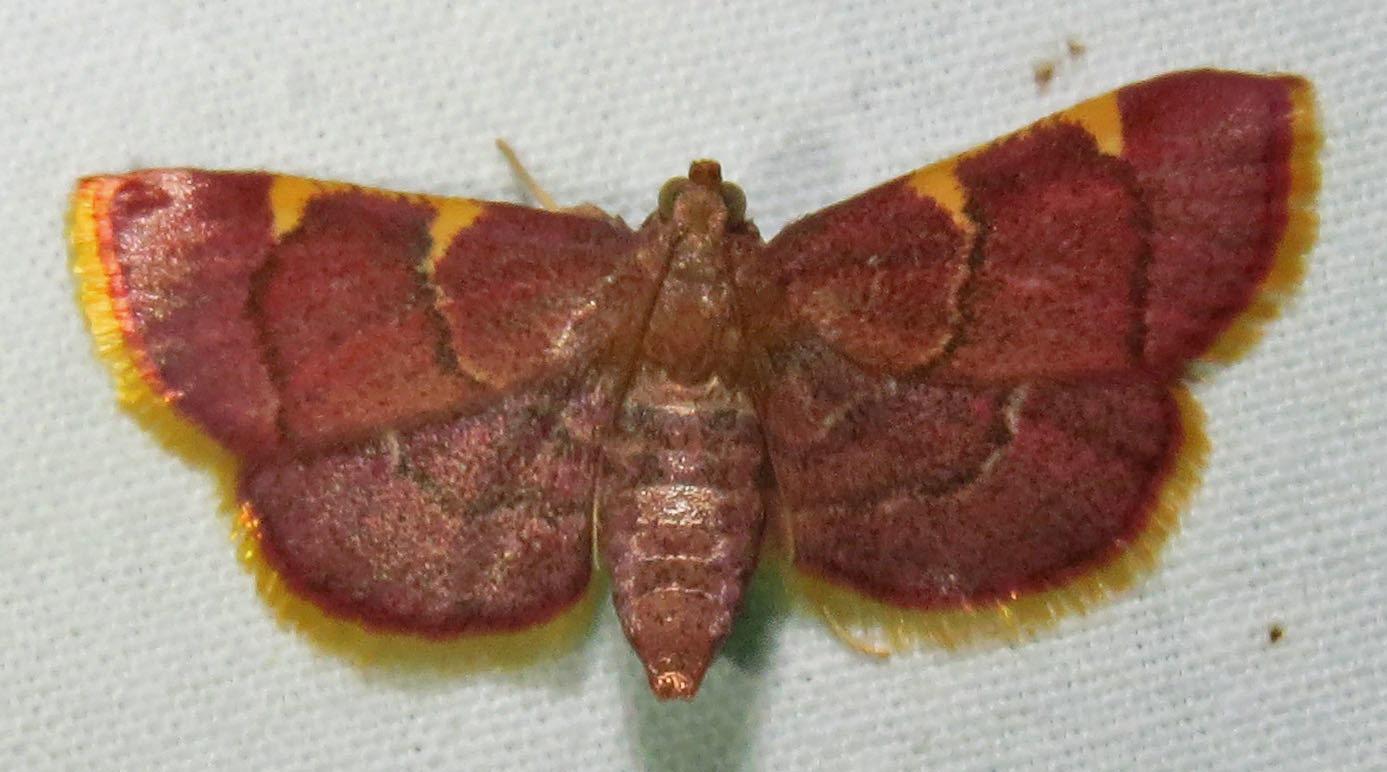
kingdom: Animalia
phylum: Arthropoda
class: Insecta
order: Lepidoptera
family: Pyralidae
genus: Hypsopygia
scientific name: Hypsopygia olinalis
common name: Yellow-fringed dolichomia moth
